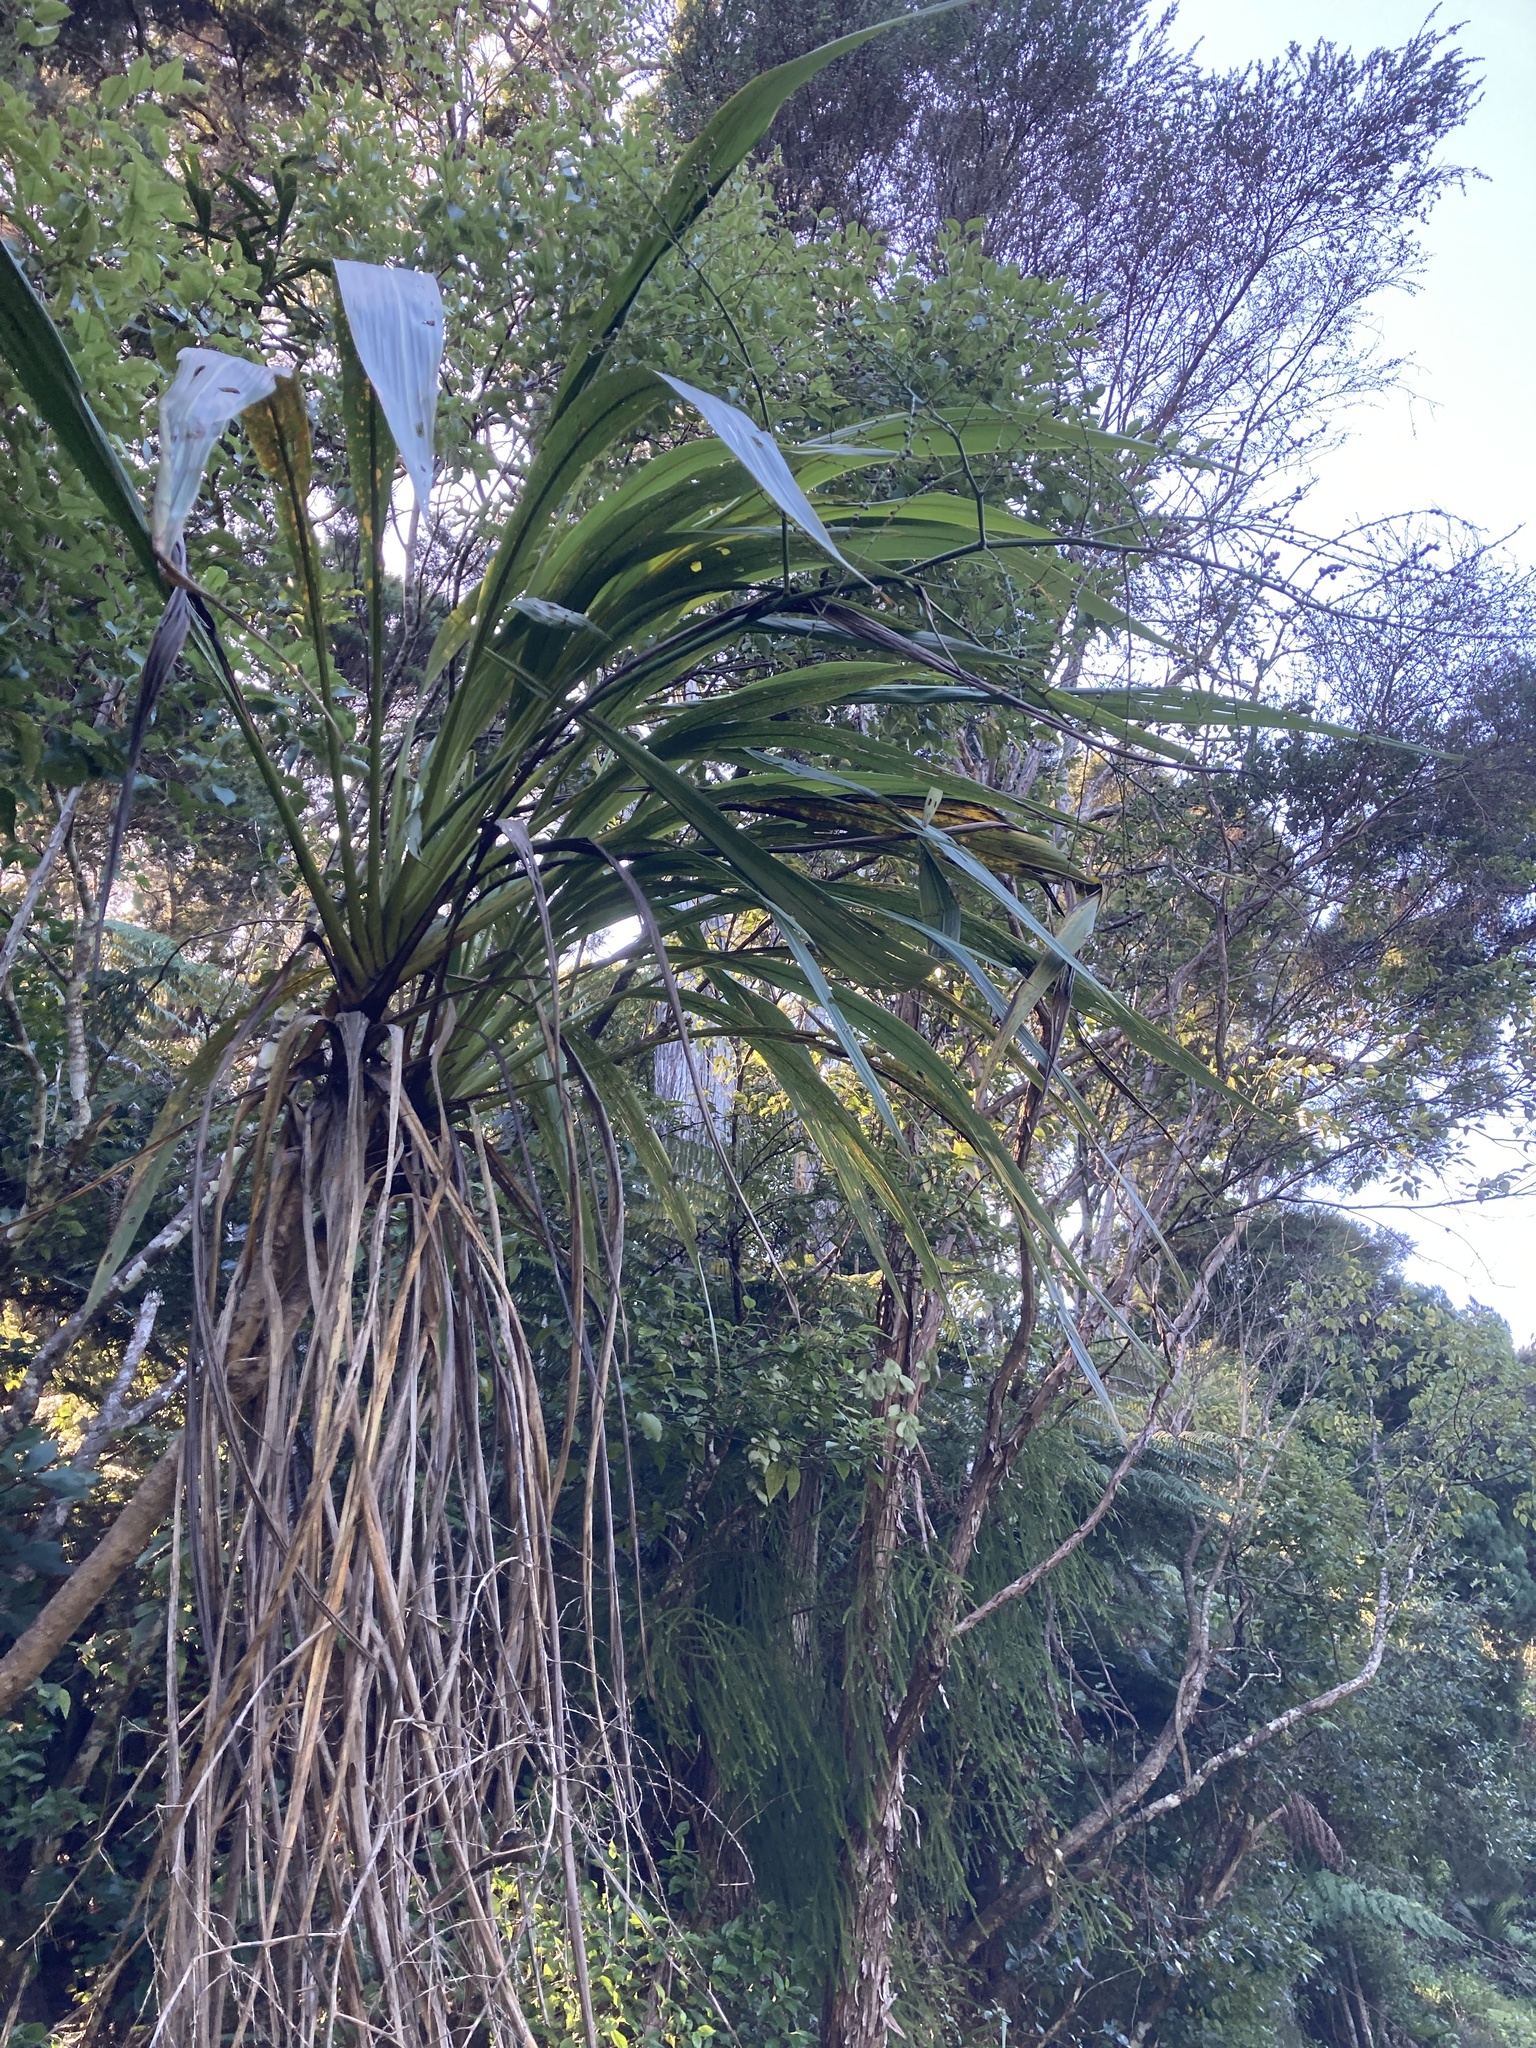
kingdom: Plantae
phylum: Tracheophyta
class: Liliopsida
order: Asparagales
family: Asparagaceae
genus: Cordyline
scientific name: Cordyline banksii
